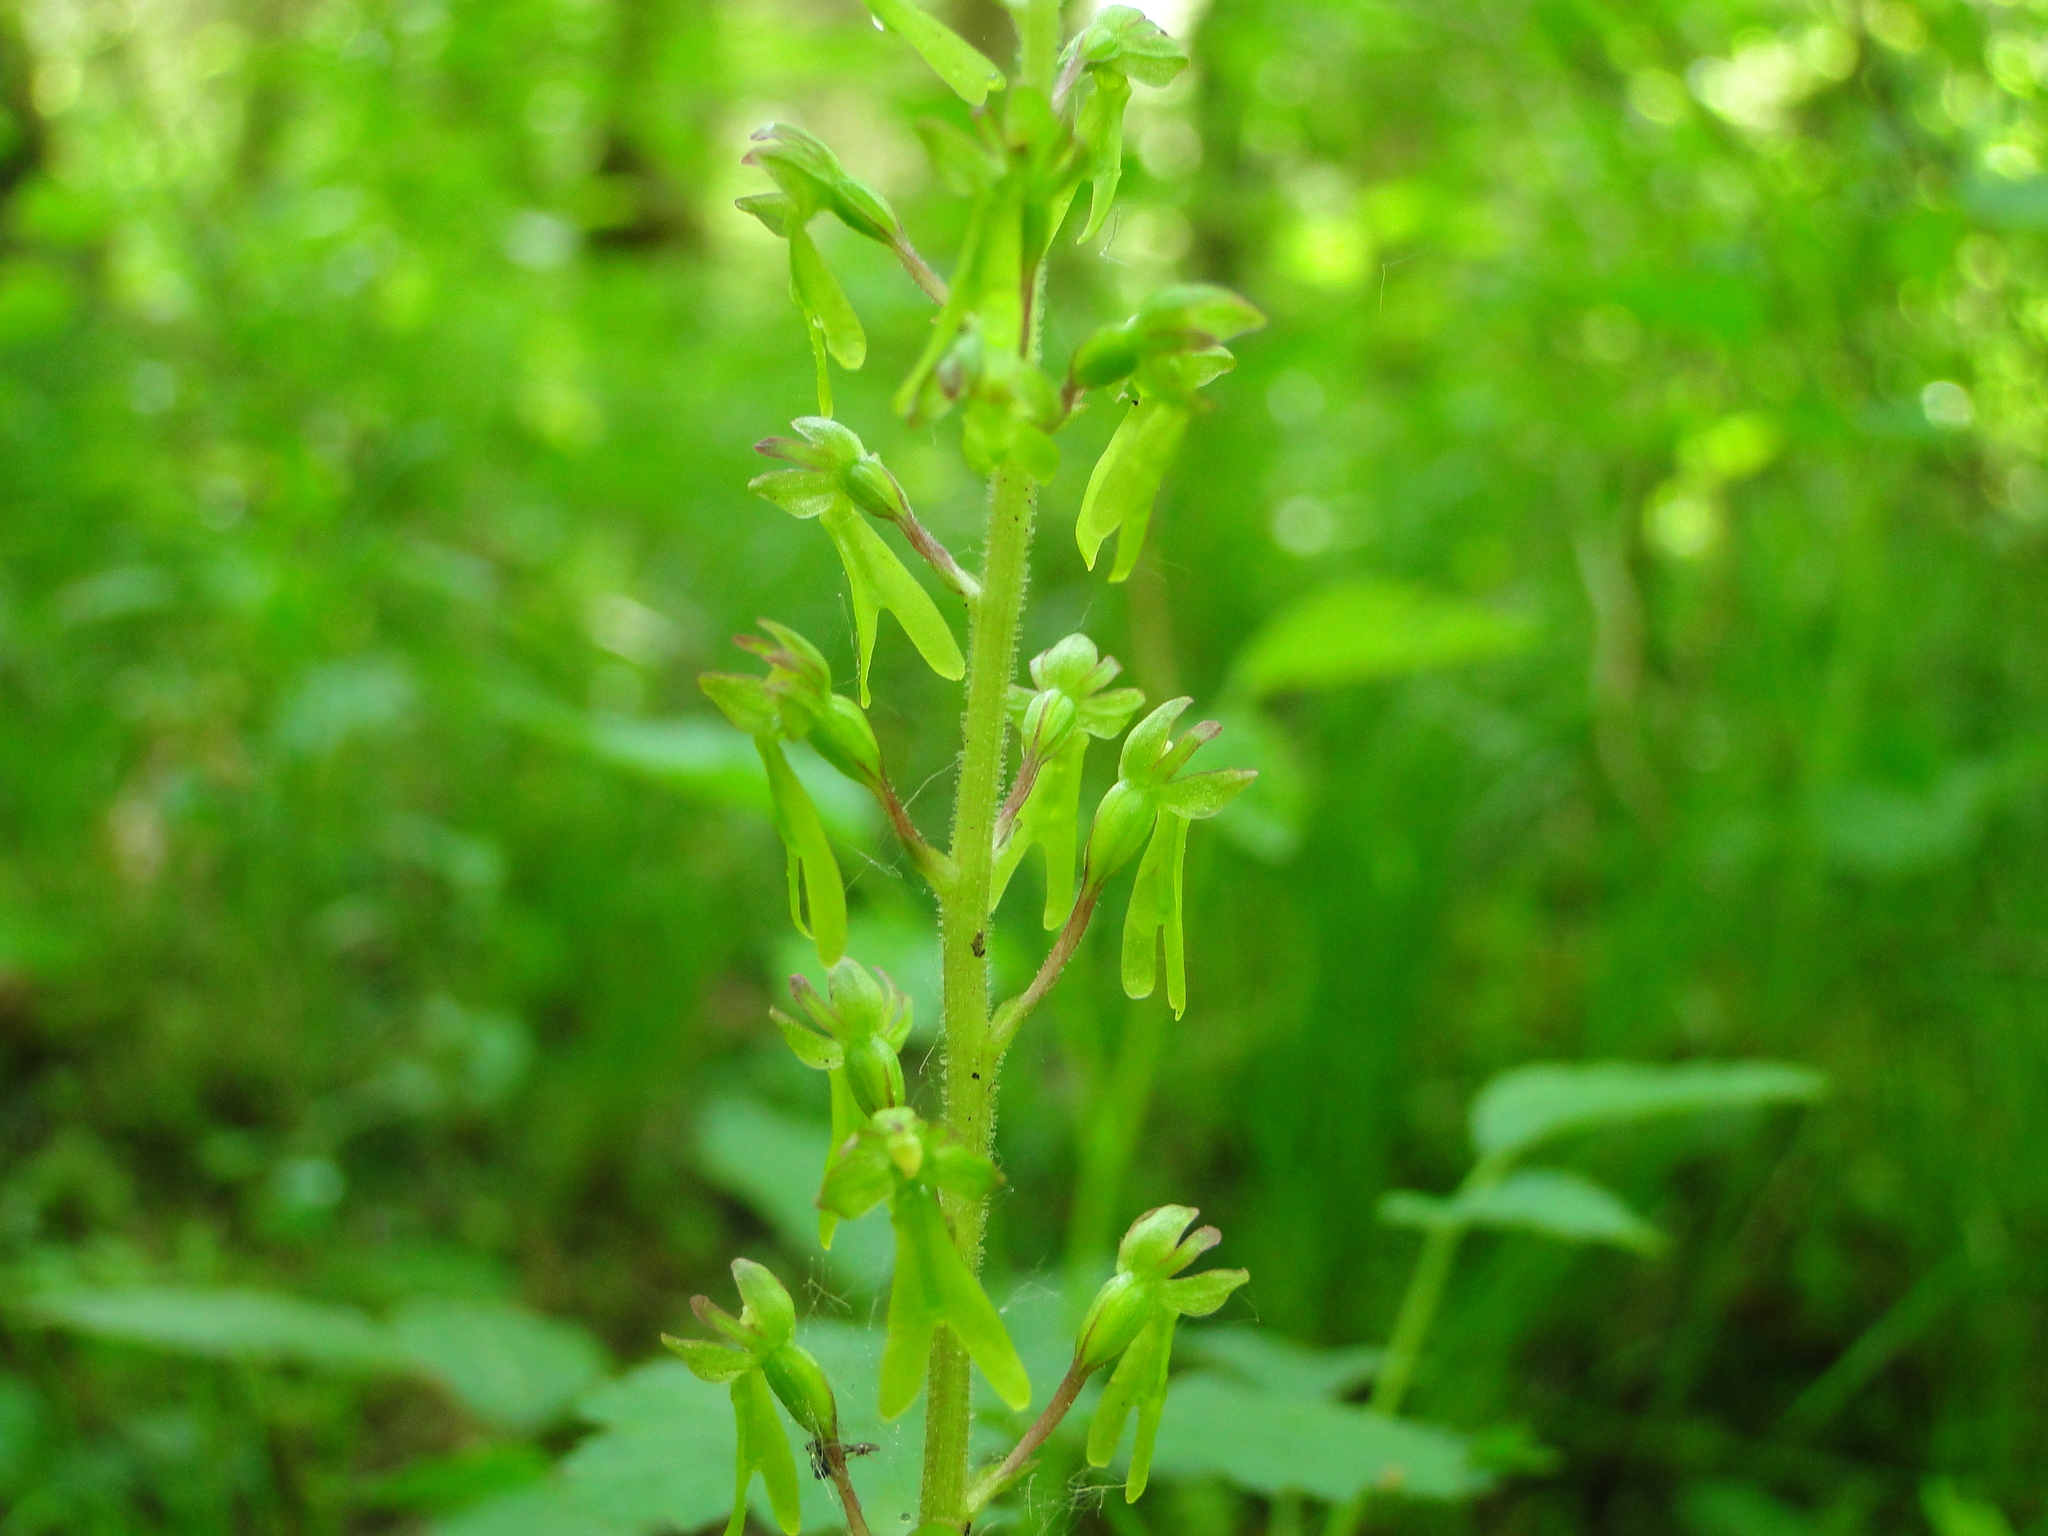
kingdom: Plantae
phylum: Tracheophyta
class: Liliopsida
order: Asparagales
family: Orchidaceae
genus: Neottia
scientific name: Neottia ovata
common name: Common twayblade
